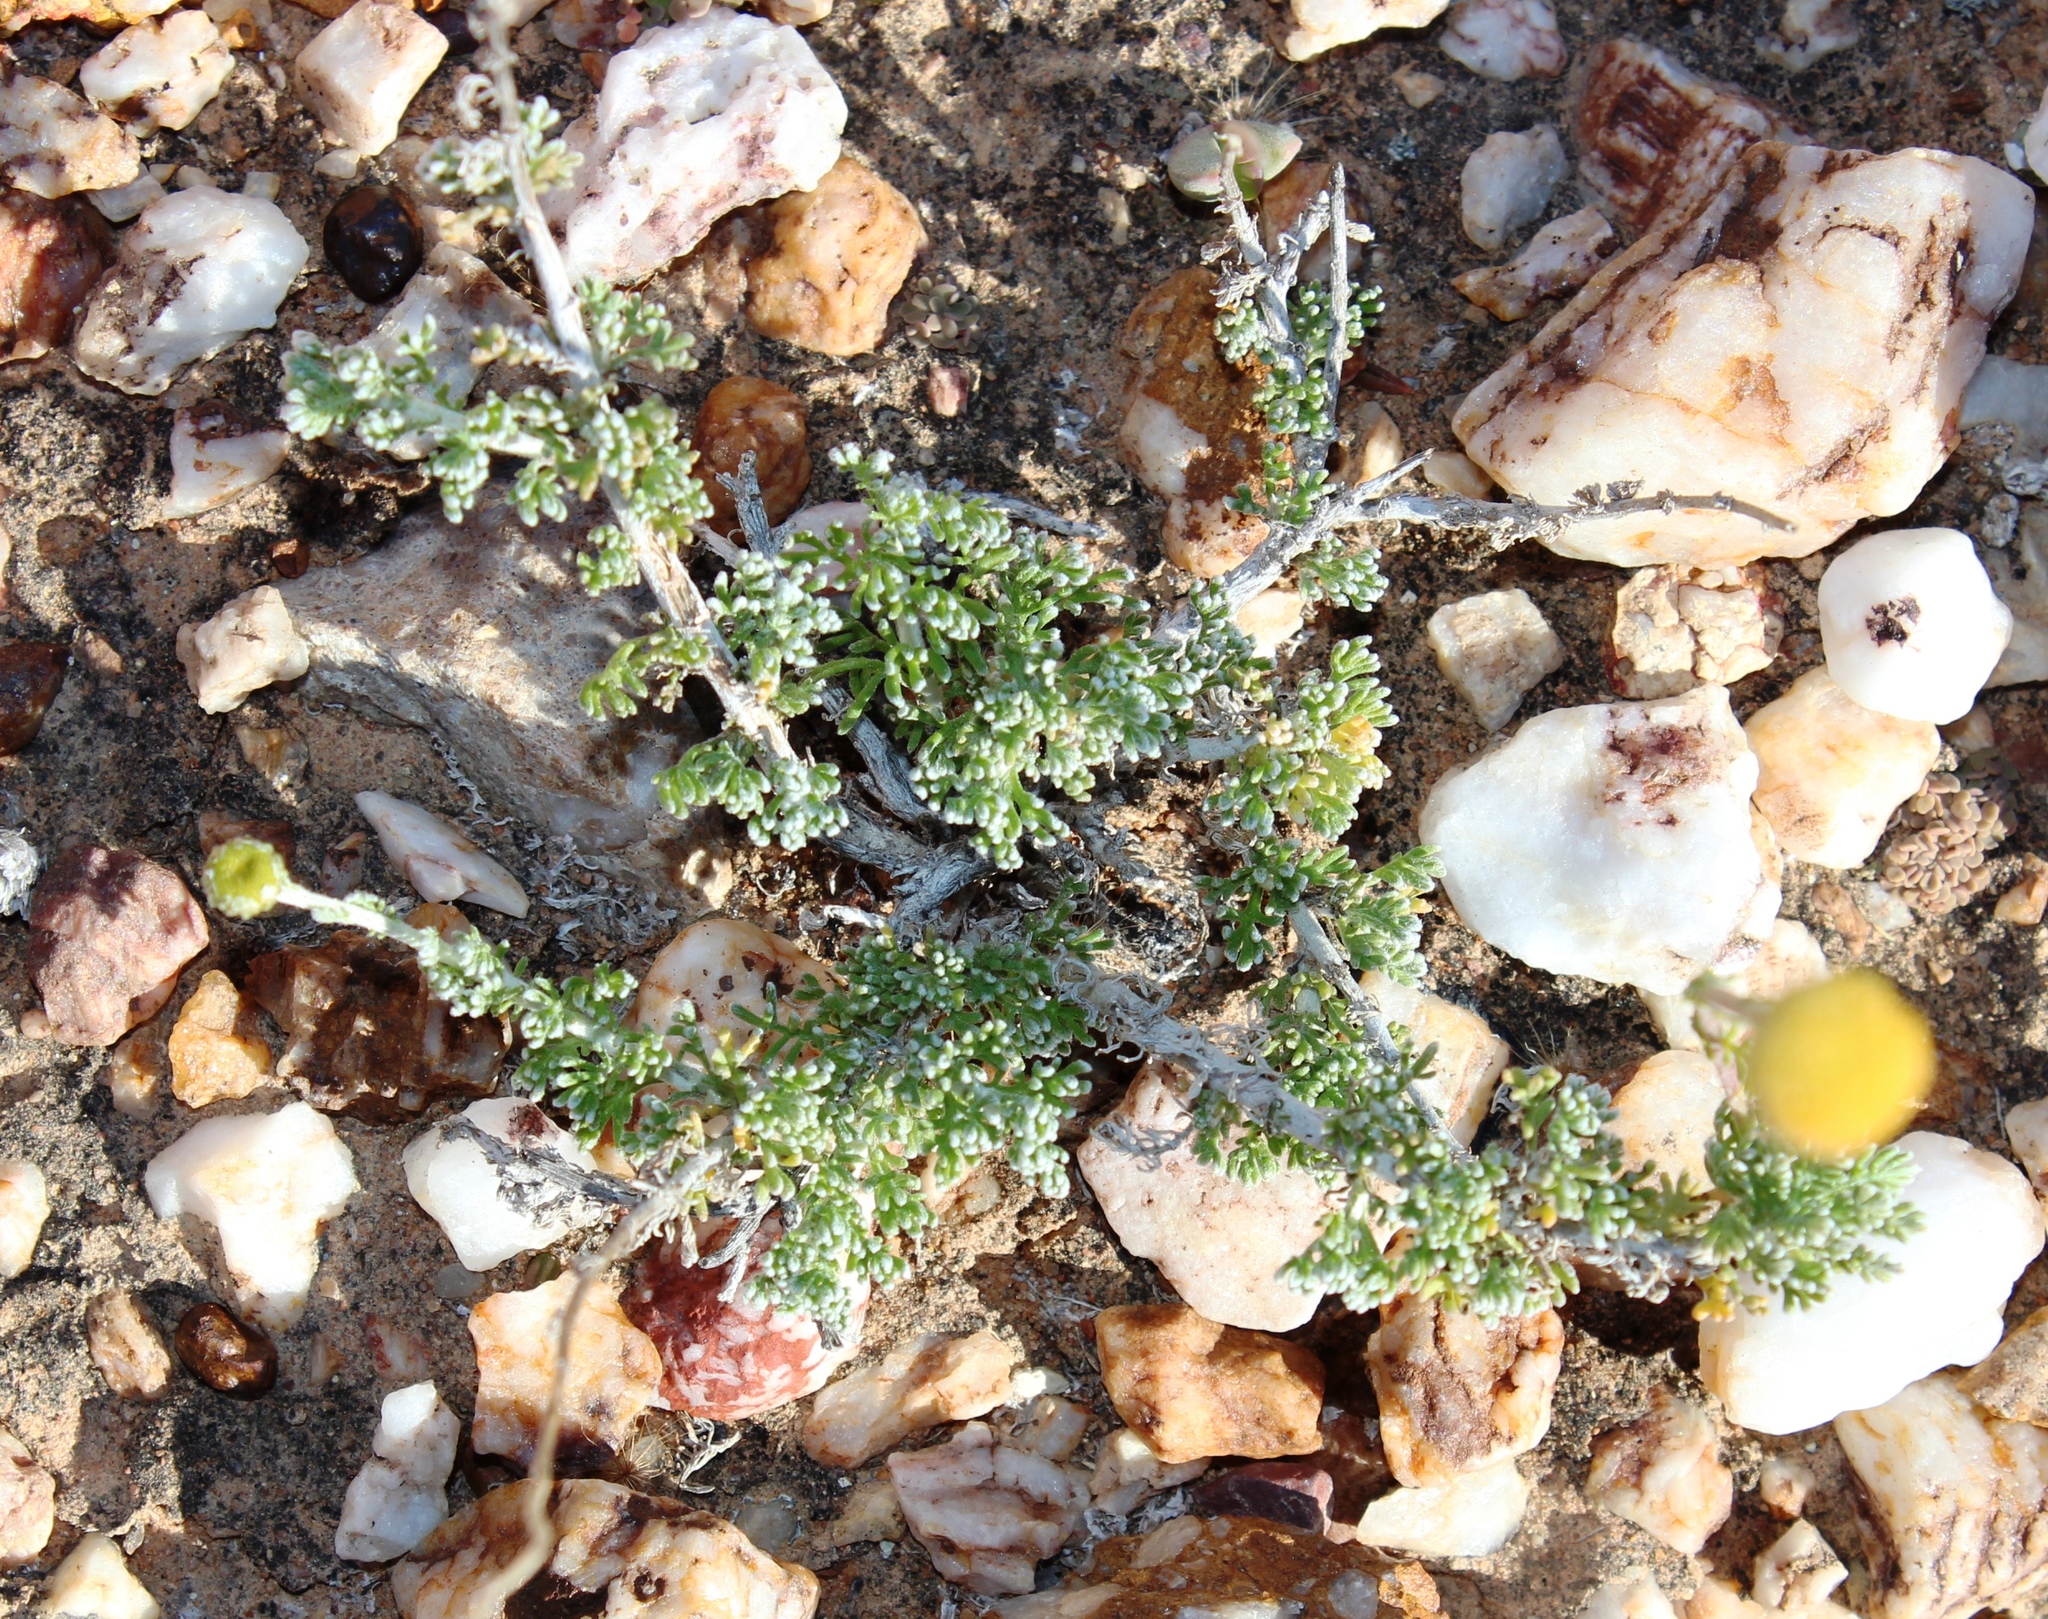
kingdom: Plantae
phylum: Tracheophyta
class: Magnoliopsida
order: Asterales
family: Asteraceae
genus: Pentzia
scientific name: Pentzia incana
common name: African sheepbush
